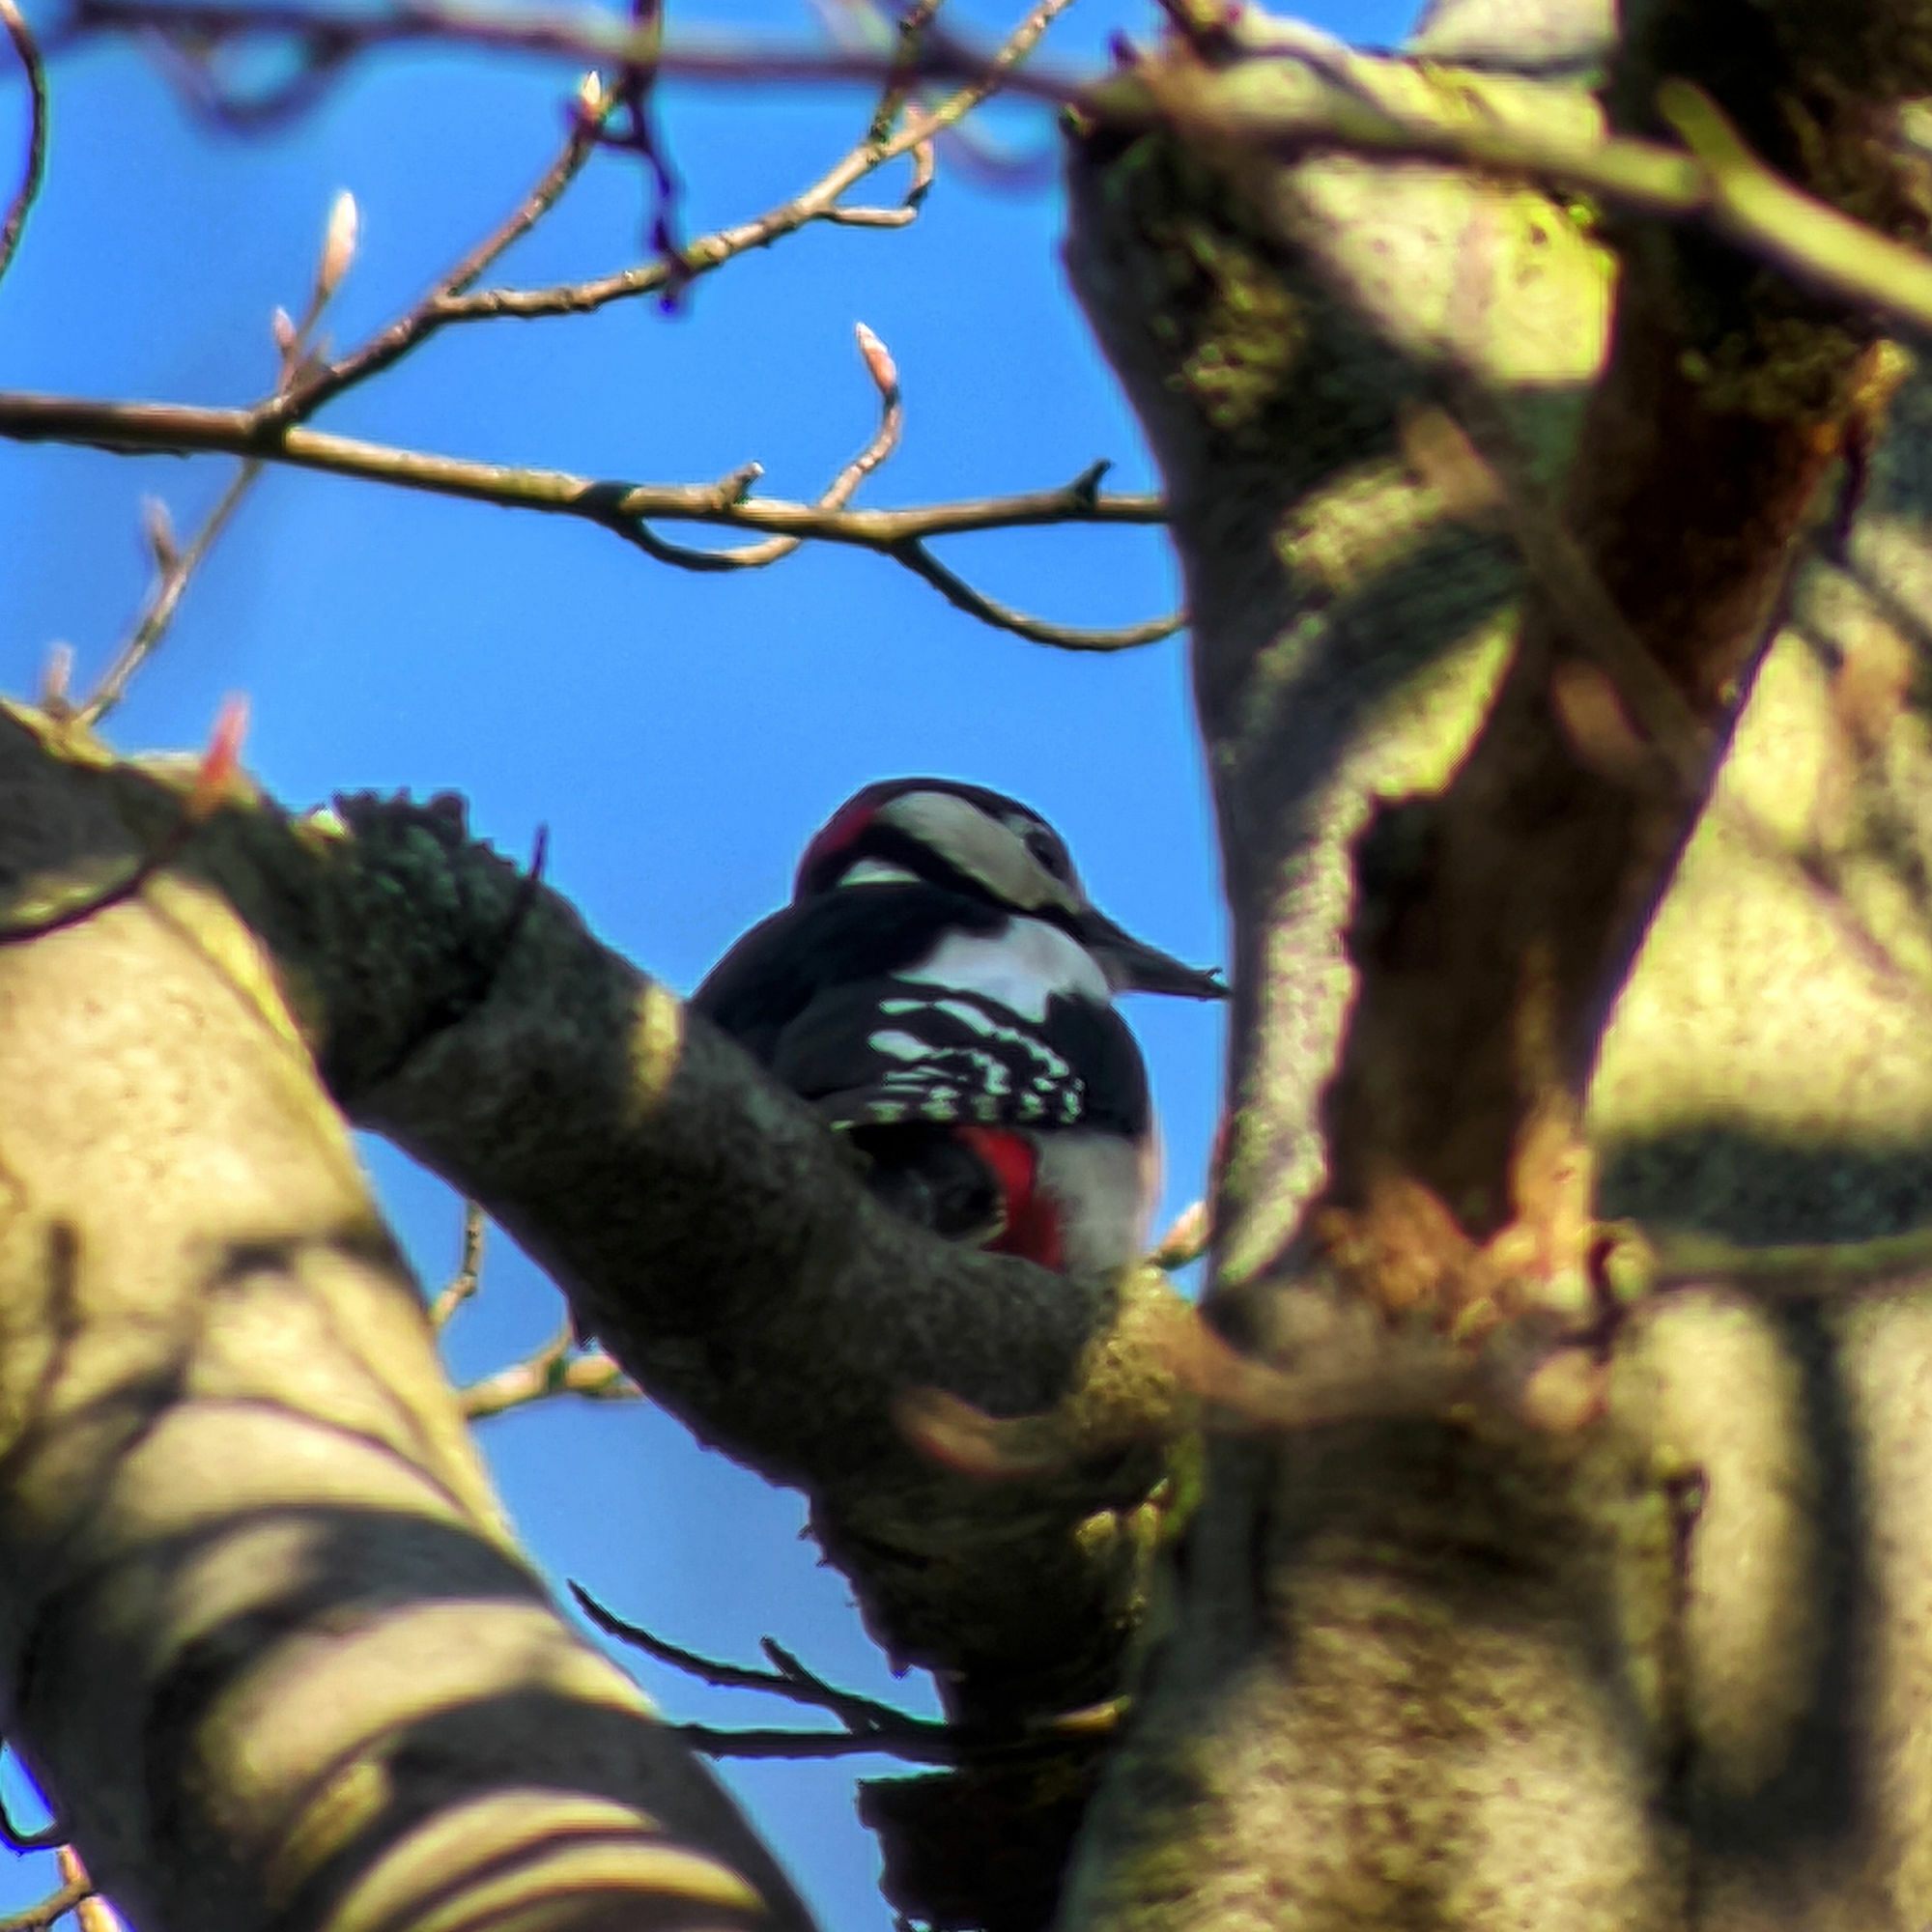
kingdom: Animalia
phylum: Chordata
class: Aves
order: Piciformes
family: Picidae
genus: Dendrocopos
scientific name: Dendrocopos major
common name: Great spotted woodpecker
